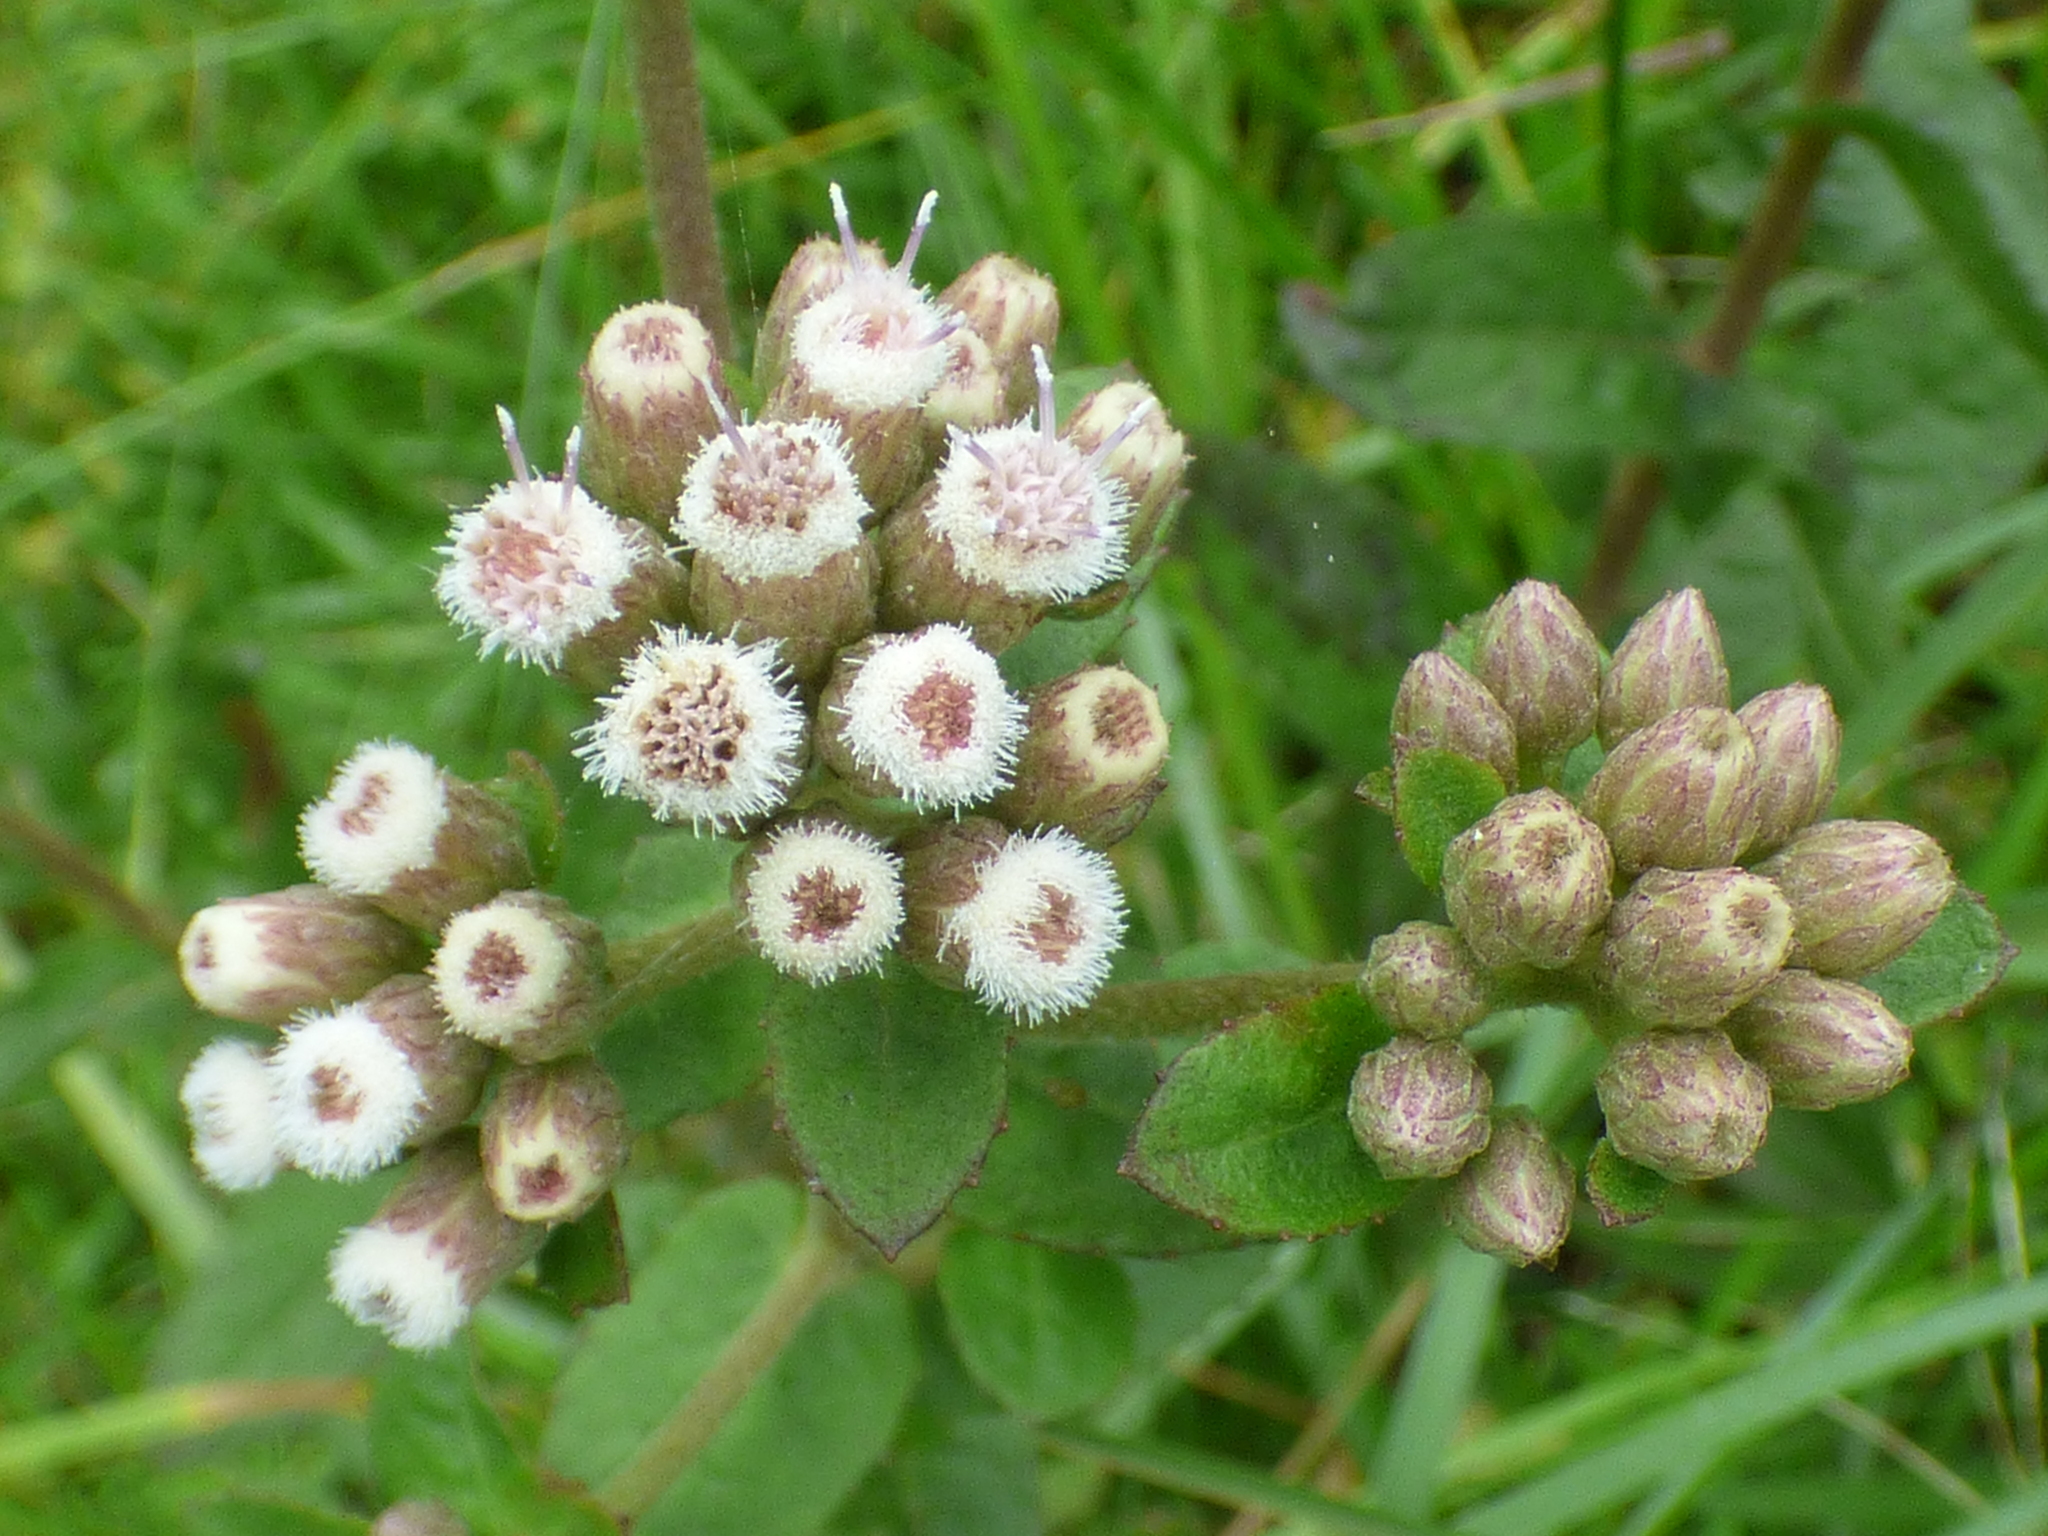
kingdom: Plantae
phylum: Tracheophyta
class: Magnoliopsida
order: Asterales
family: Asteraceae
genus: Pluchea
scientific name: Pluchea foetida
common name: Stinking camphorweed
